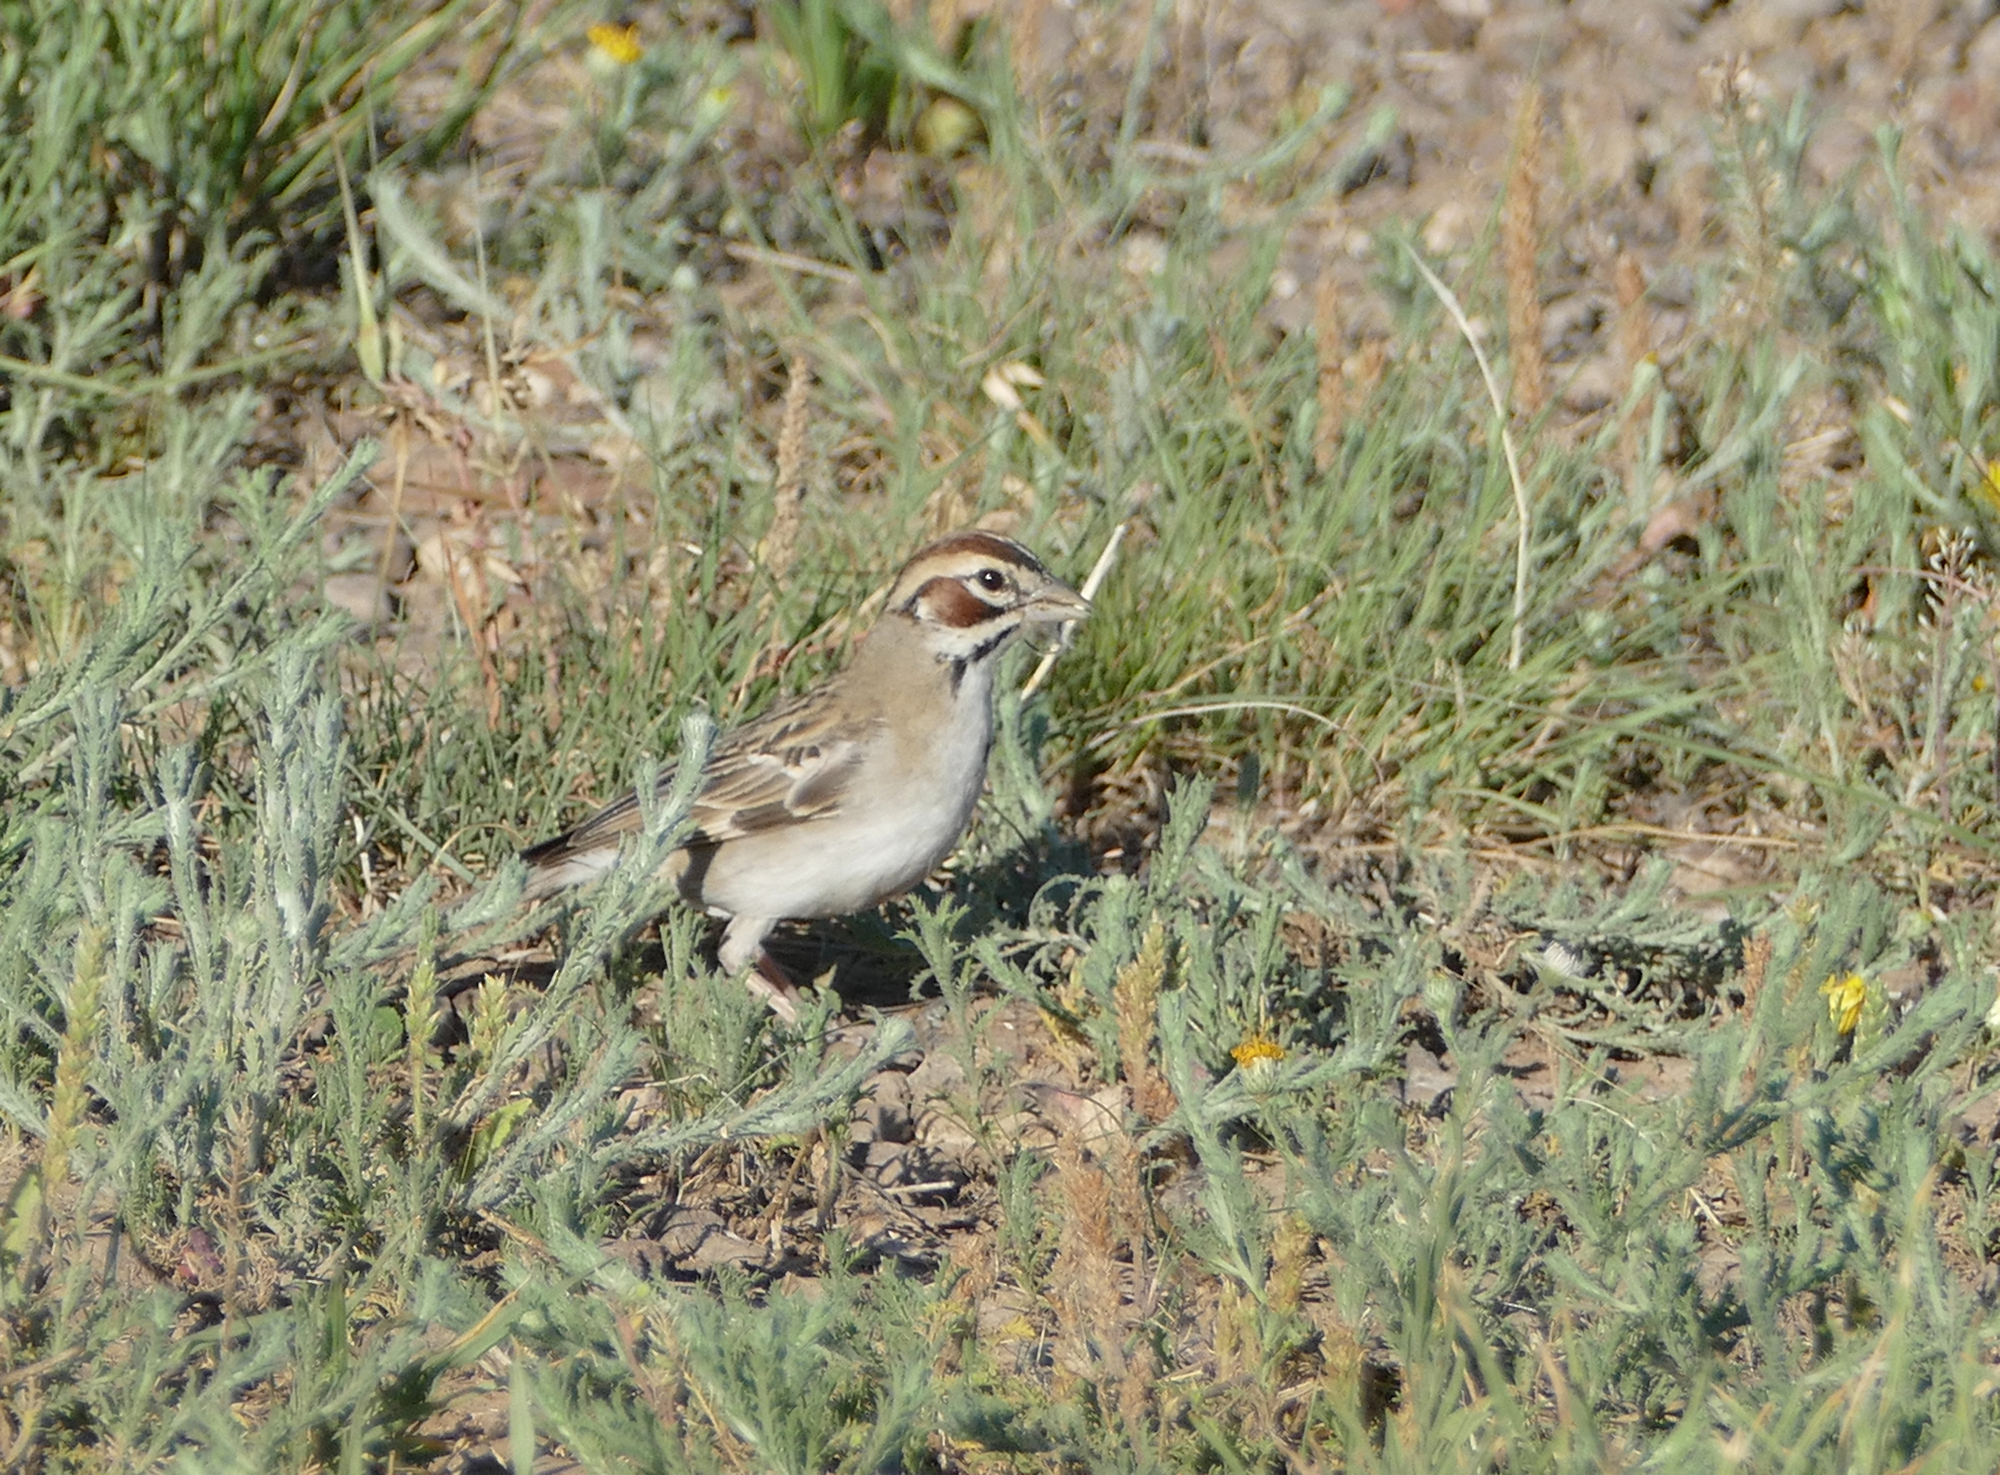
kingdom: Animalia
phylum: Chordata
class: Aves
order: Passeriformes
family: Passerellidae
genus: Chondestes
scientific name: Chondestes grammacus
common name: Lark sparrow
